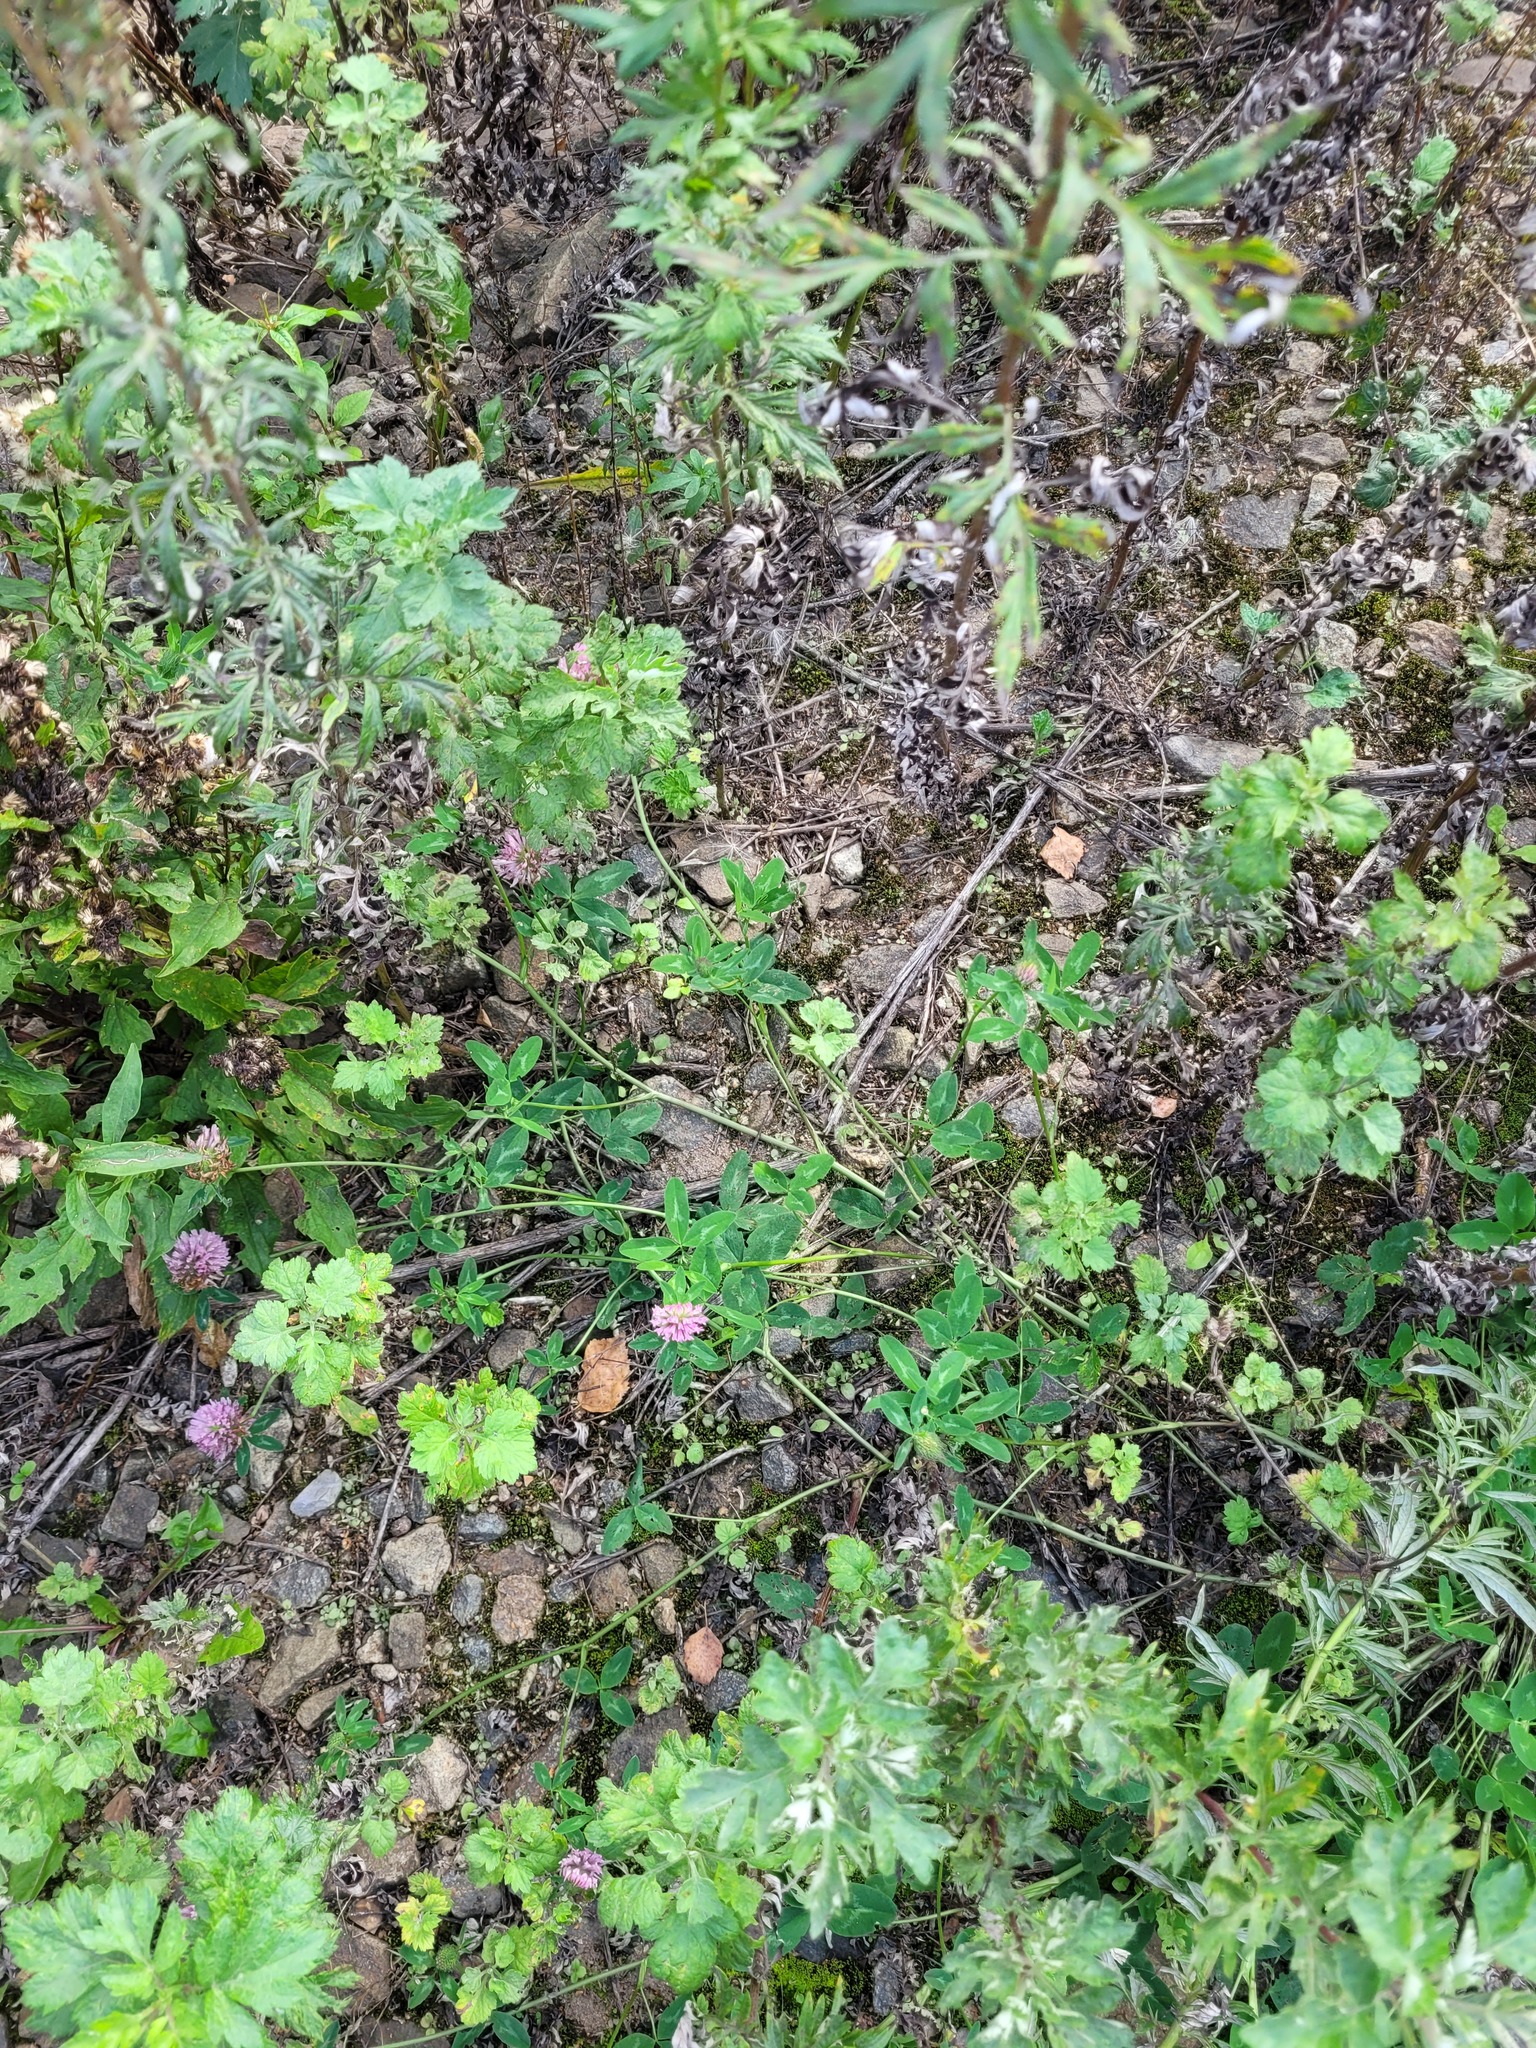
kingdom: Plantae
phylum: Tracheophyta
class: Magnoliopsida
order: Fabales
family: Fabaceae
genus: Trifolium
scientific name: Trifolium pratense
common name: Red clover
